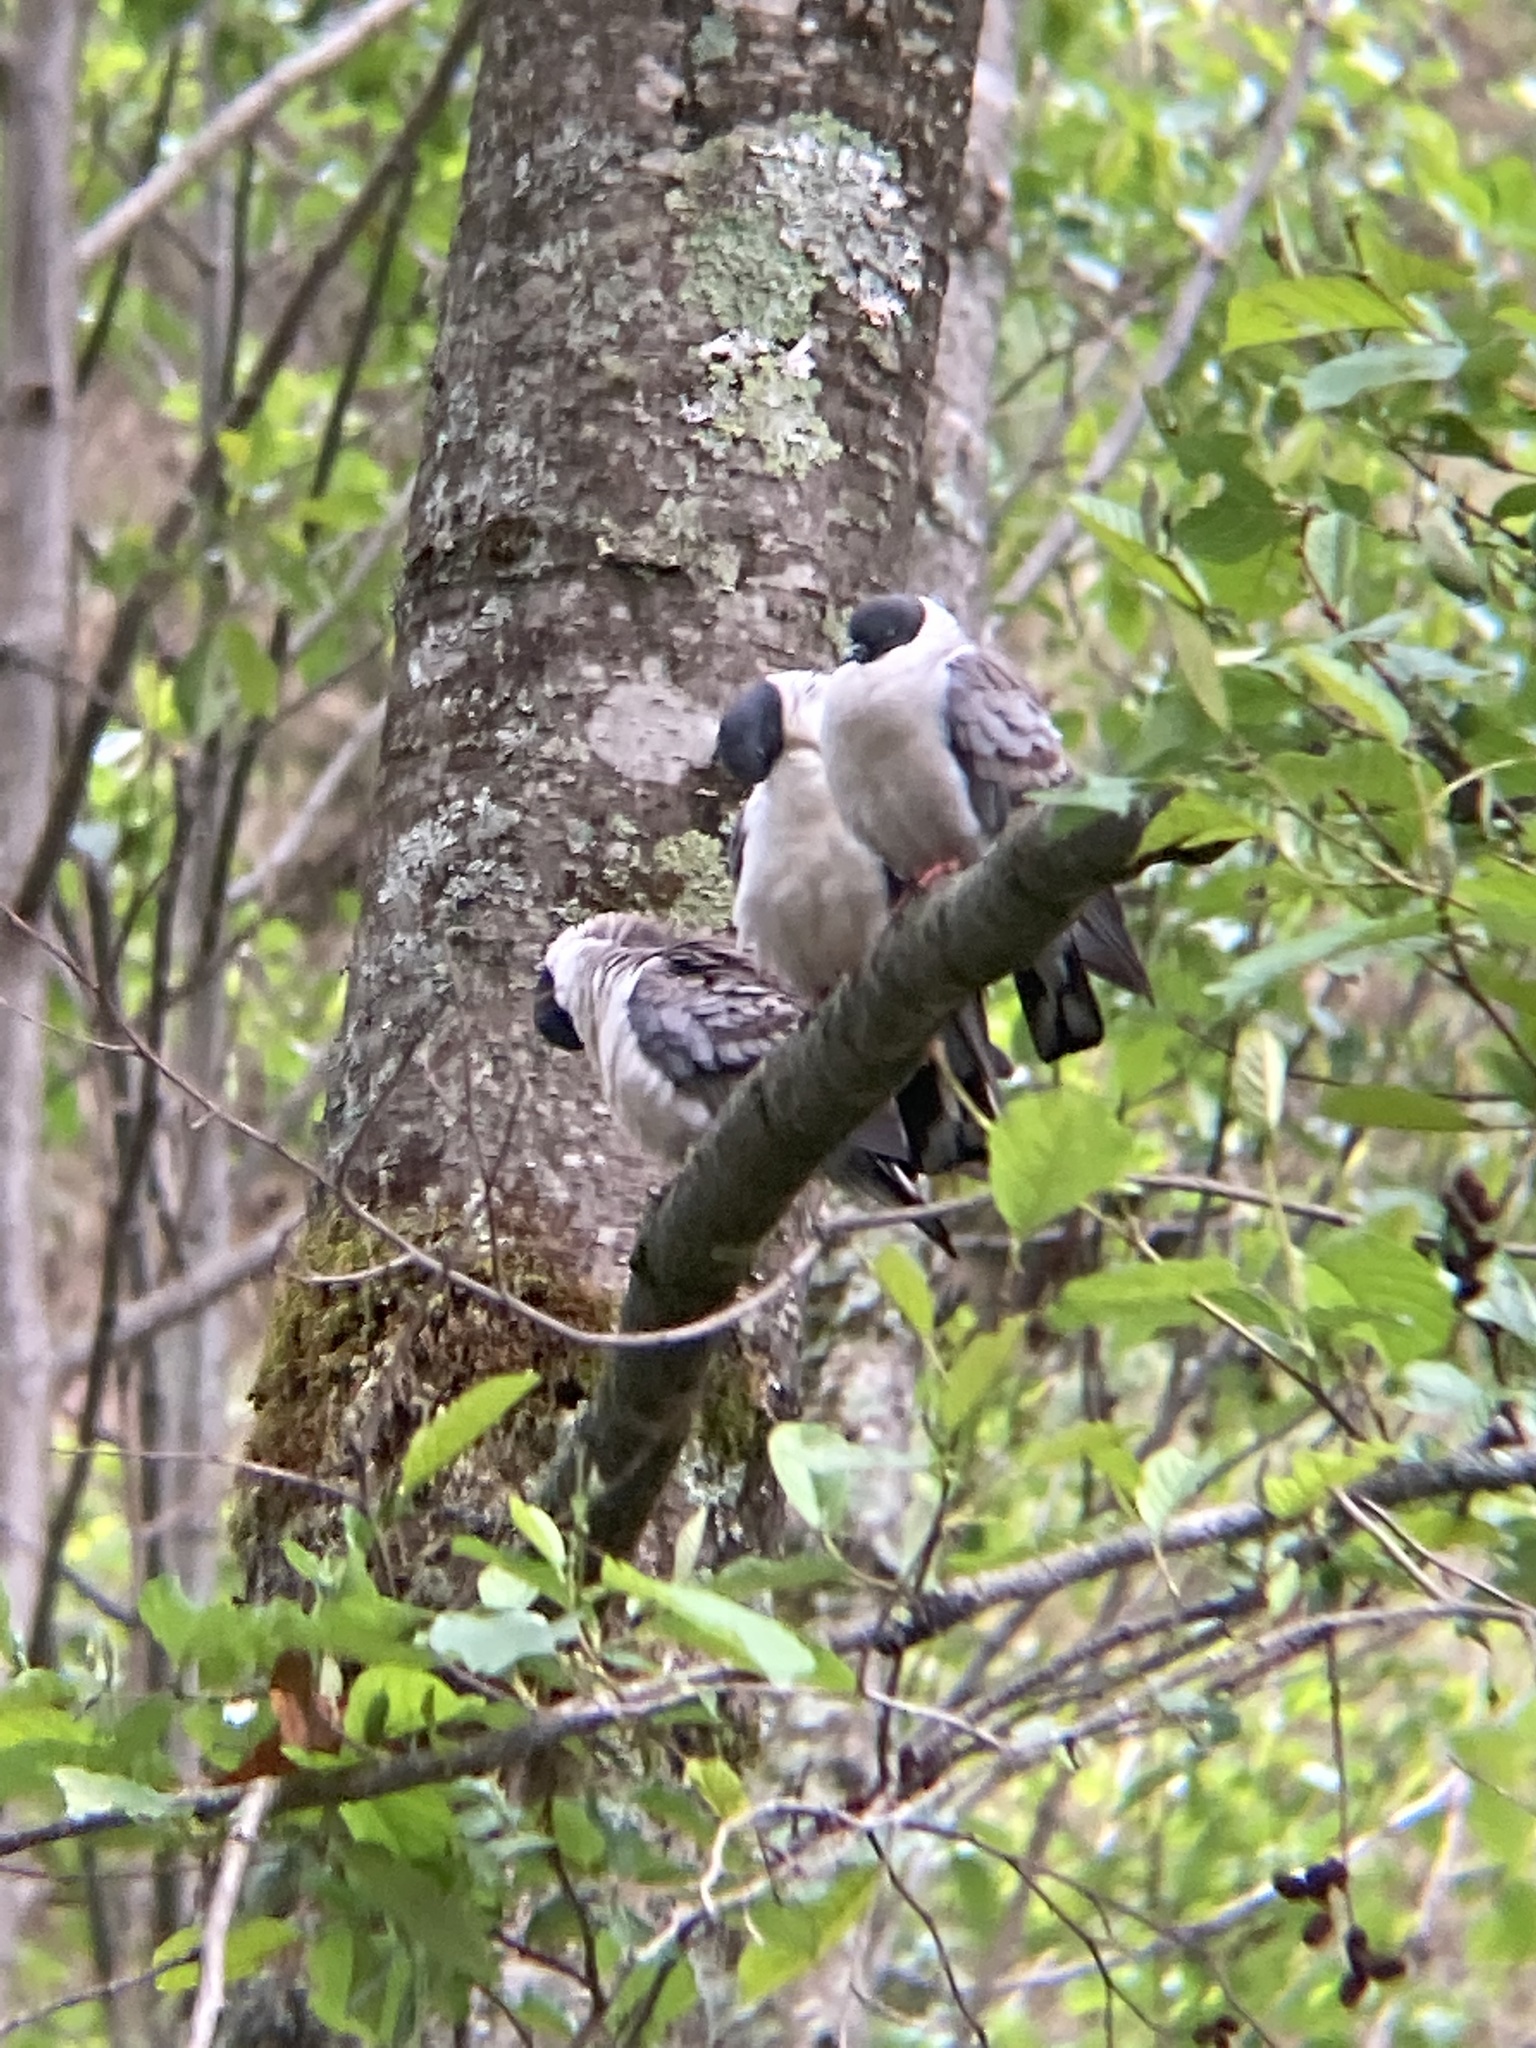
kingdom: Animalia
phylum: Chordata
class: Aves
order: Columbiformes
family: Columbidae
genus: Columba
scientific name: Columba leuconota
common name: Snow pigeon
